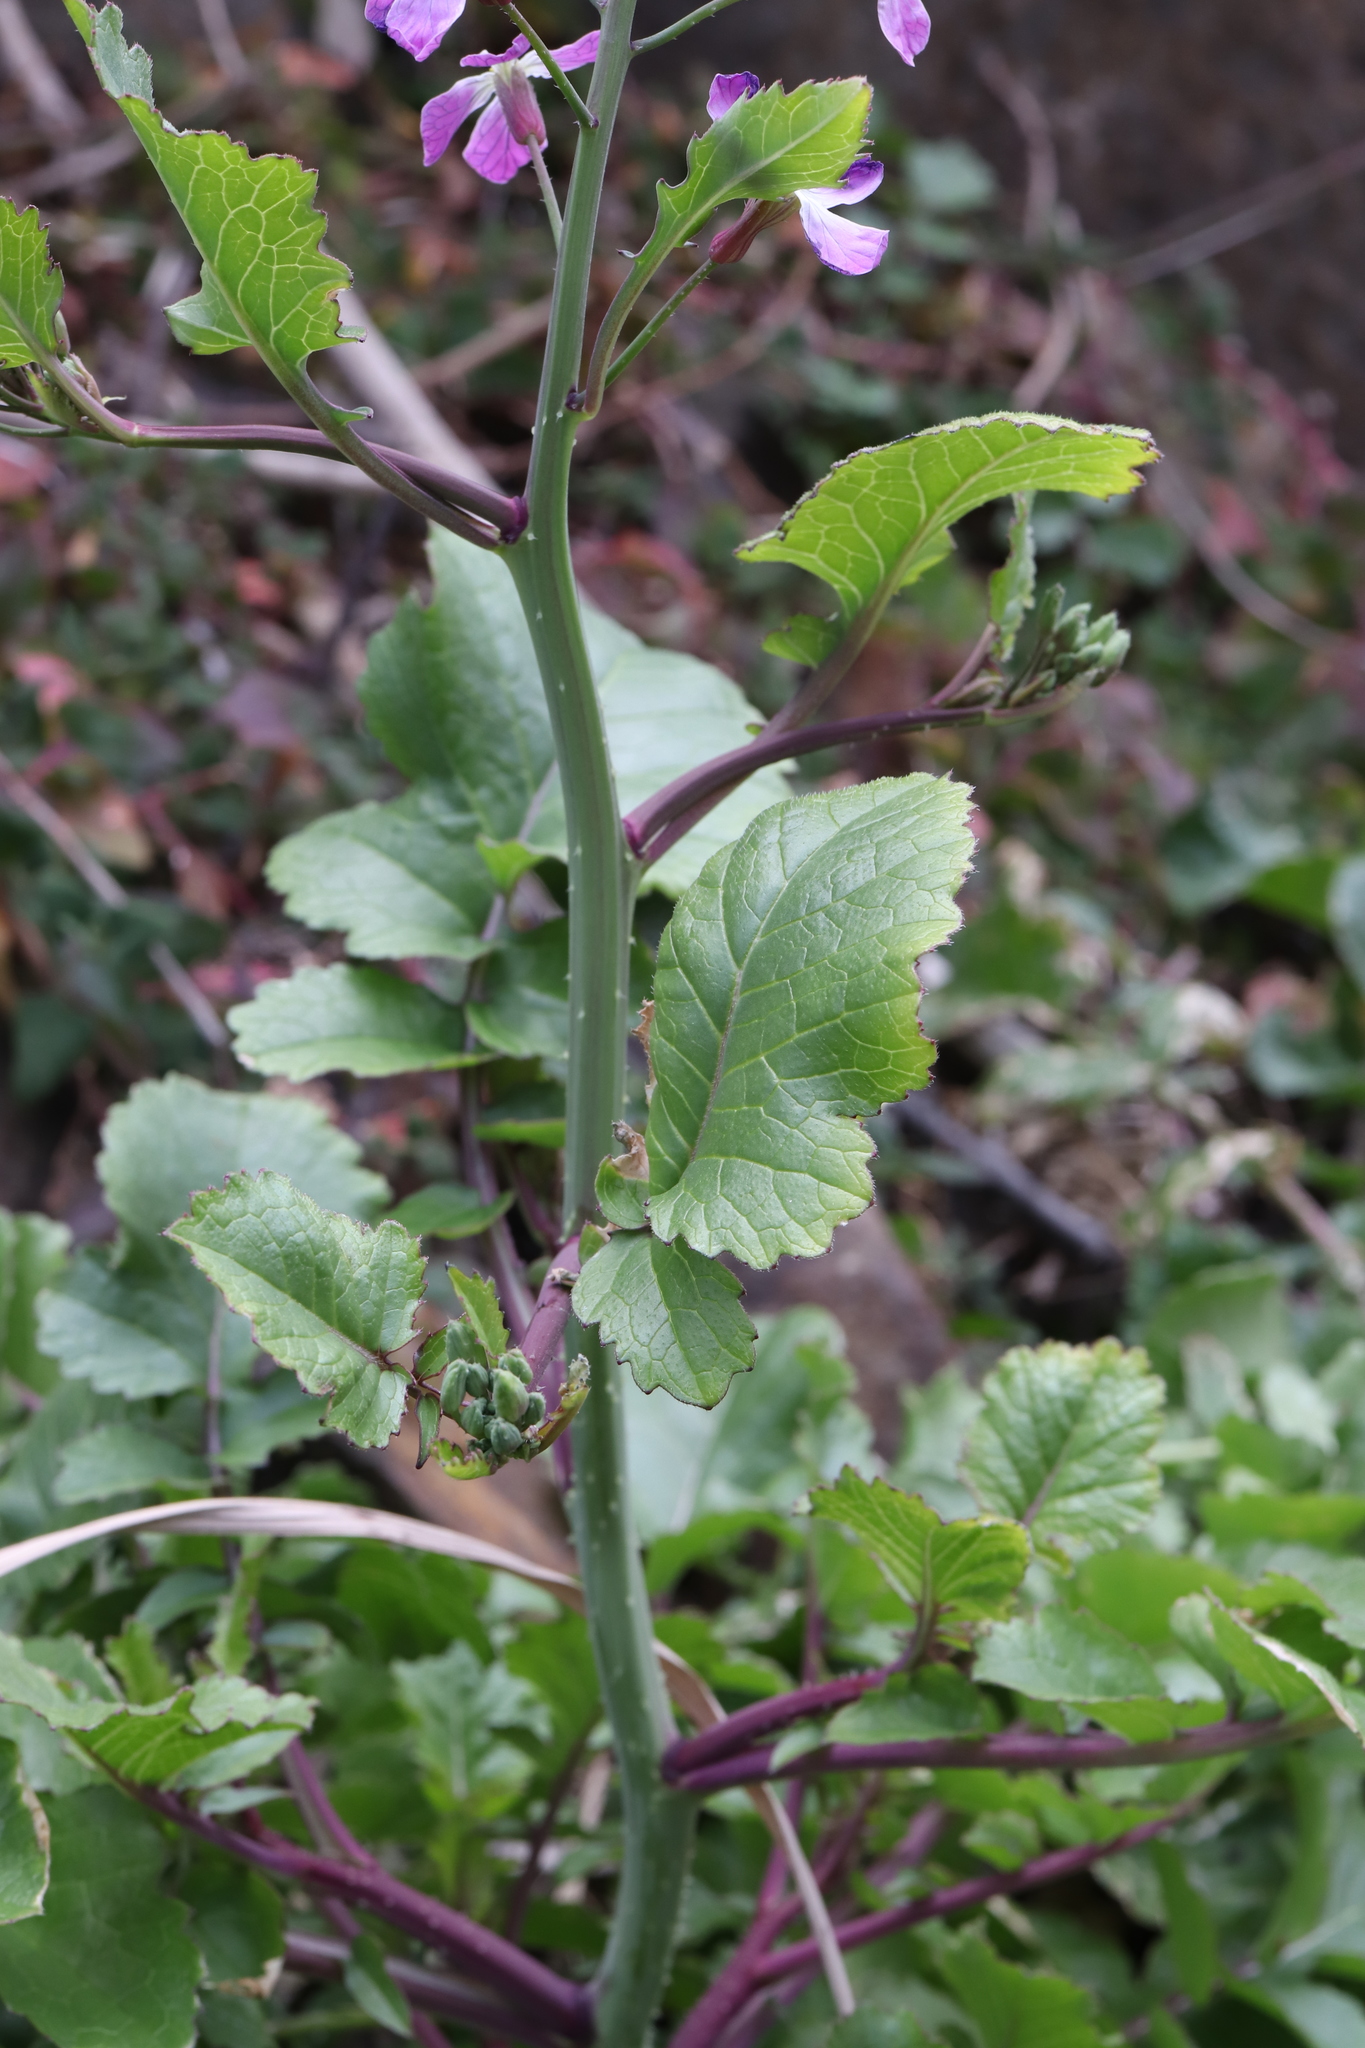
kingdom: Plantae
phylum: Tracheophyta
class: Magnoliopsida
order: Brassicales
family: Brassicaceae
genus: Raphanus
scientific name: Raphanus sativus
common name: Cultivated radish
